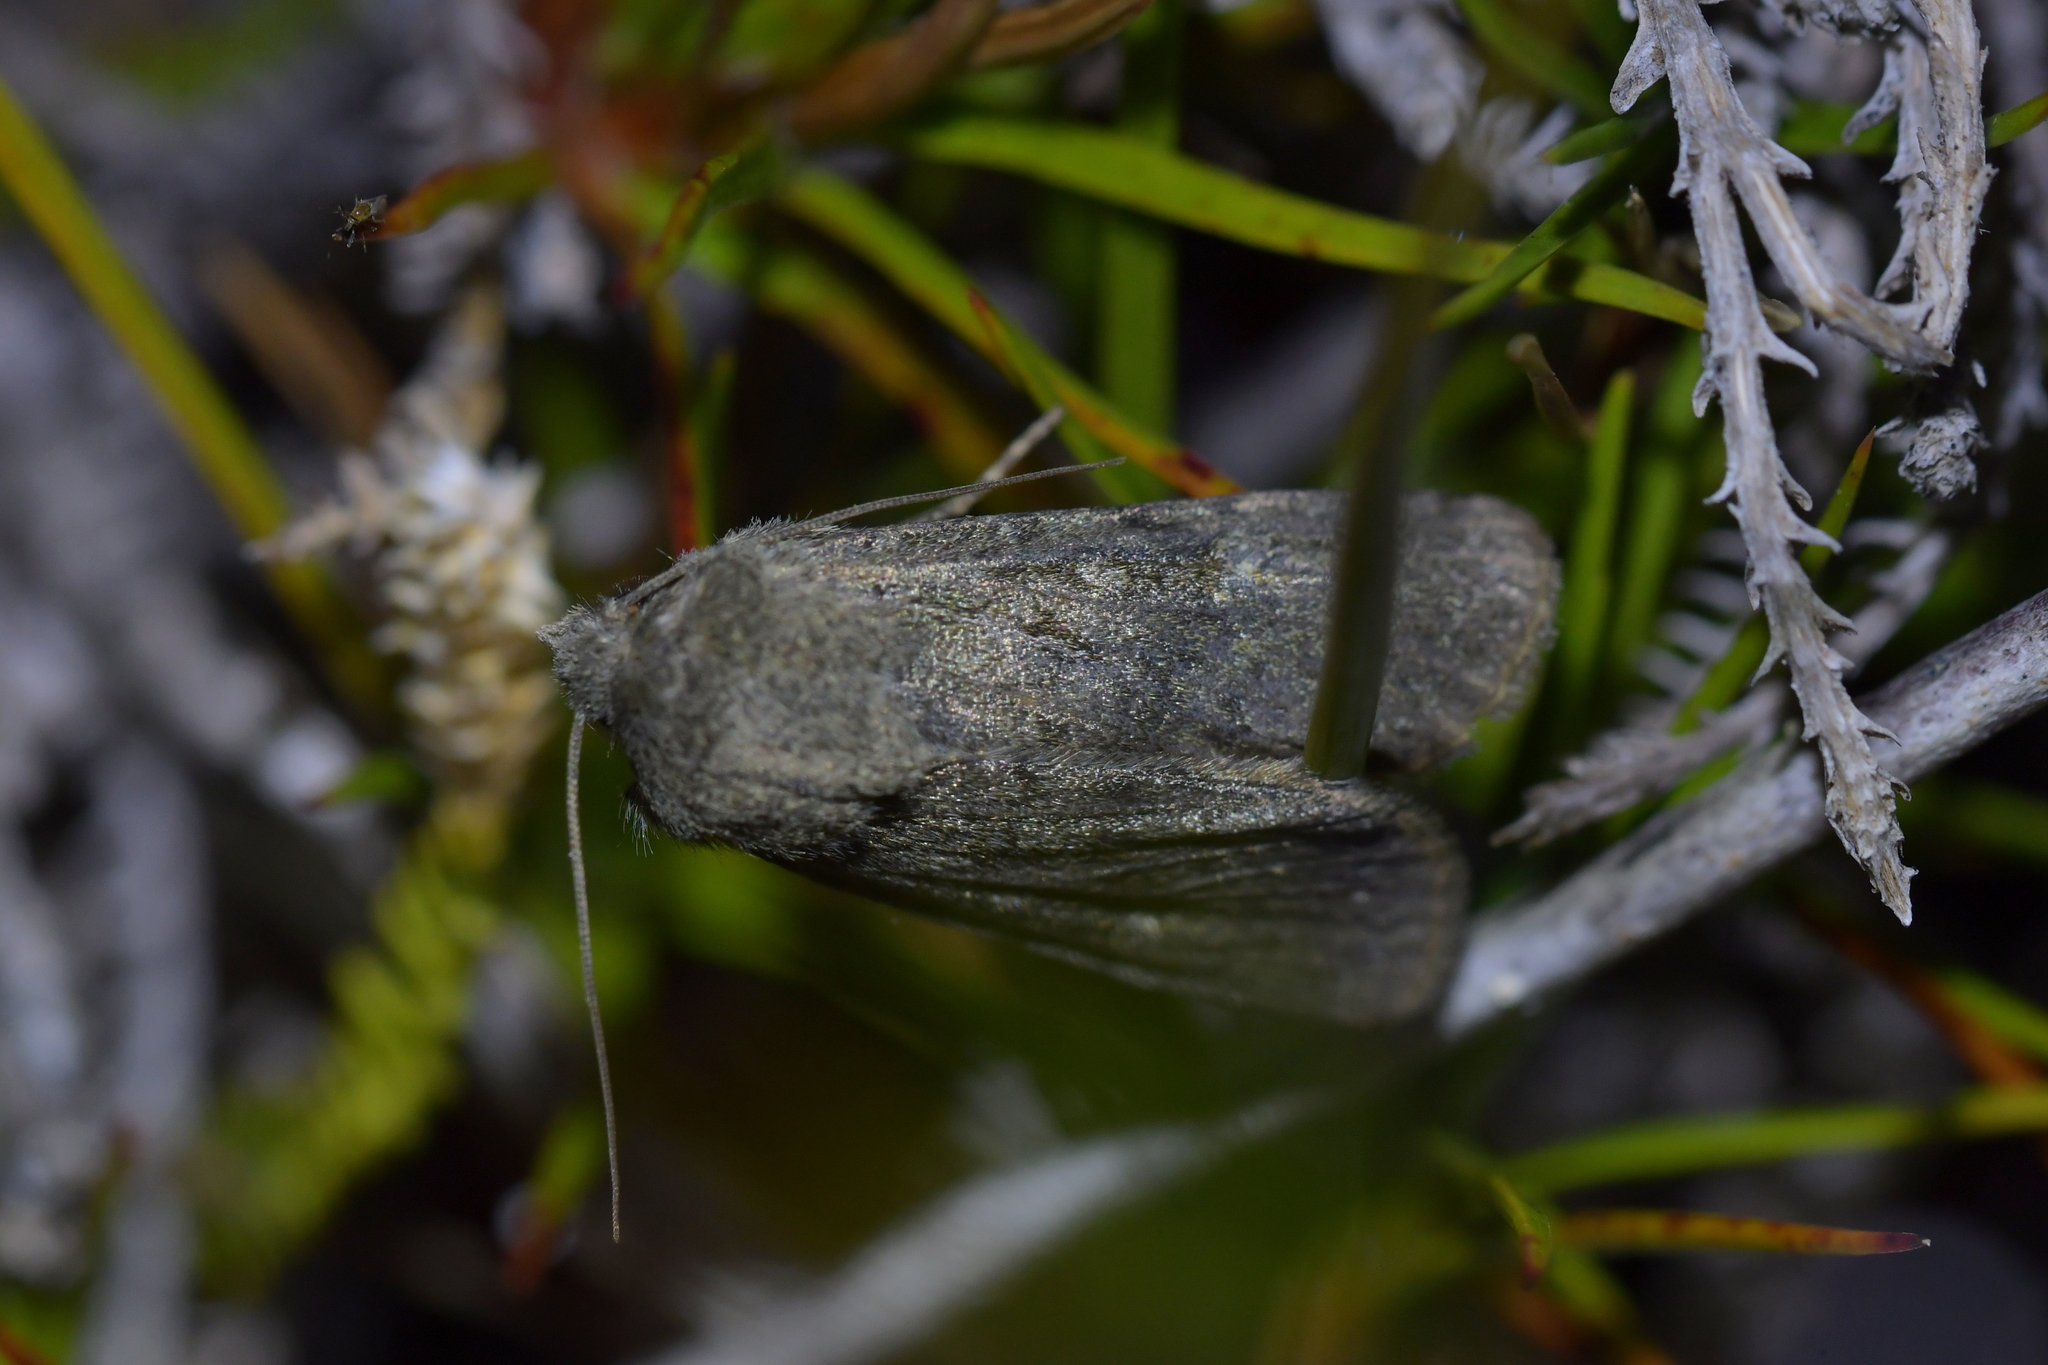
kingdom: Animalia
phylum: Arthropoda
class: Insecta
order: Lepidoptera
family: Noctuidae
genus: Ichneutica
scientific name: Ichneutica moderata
